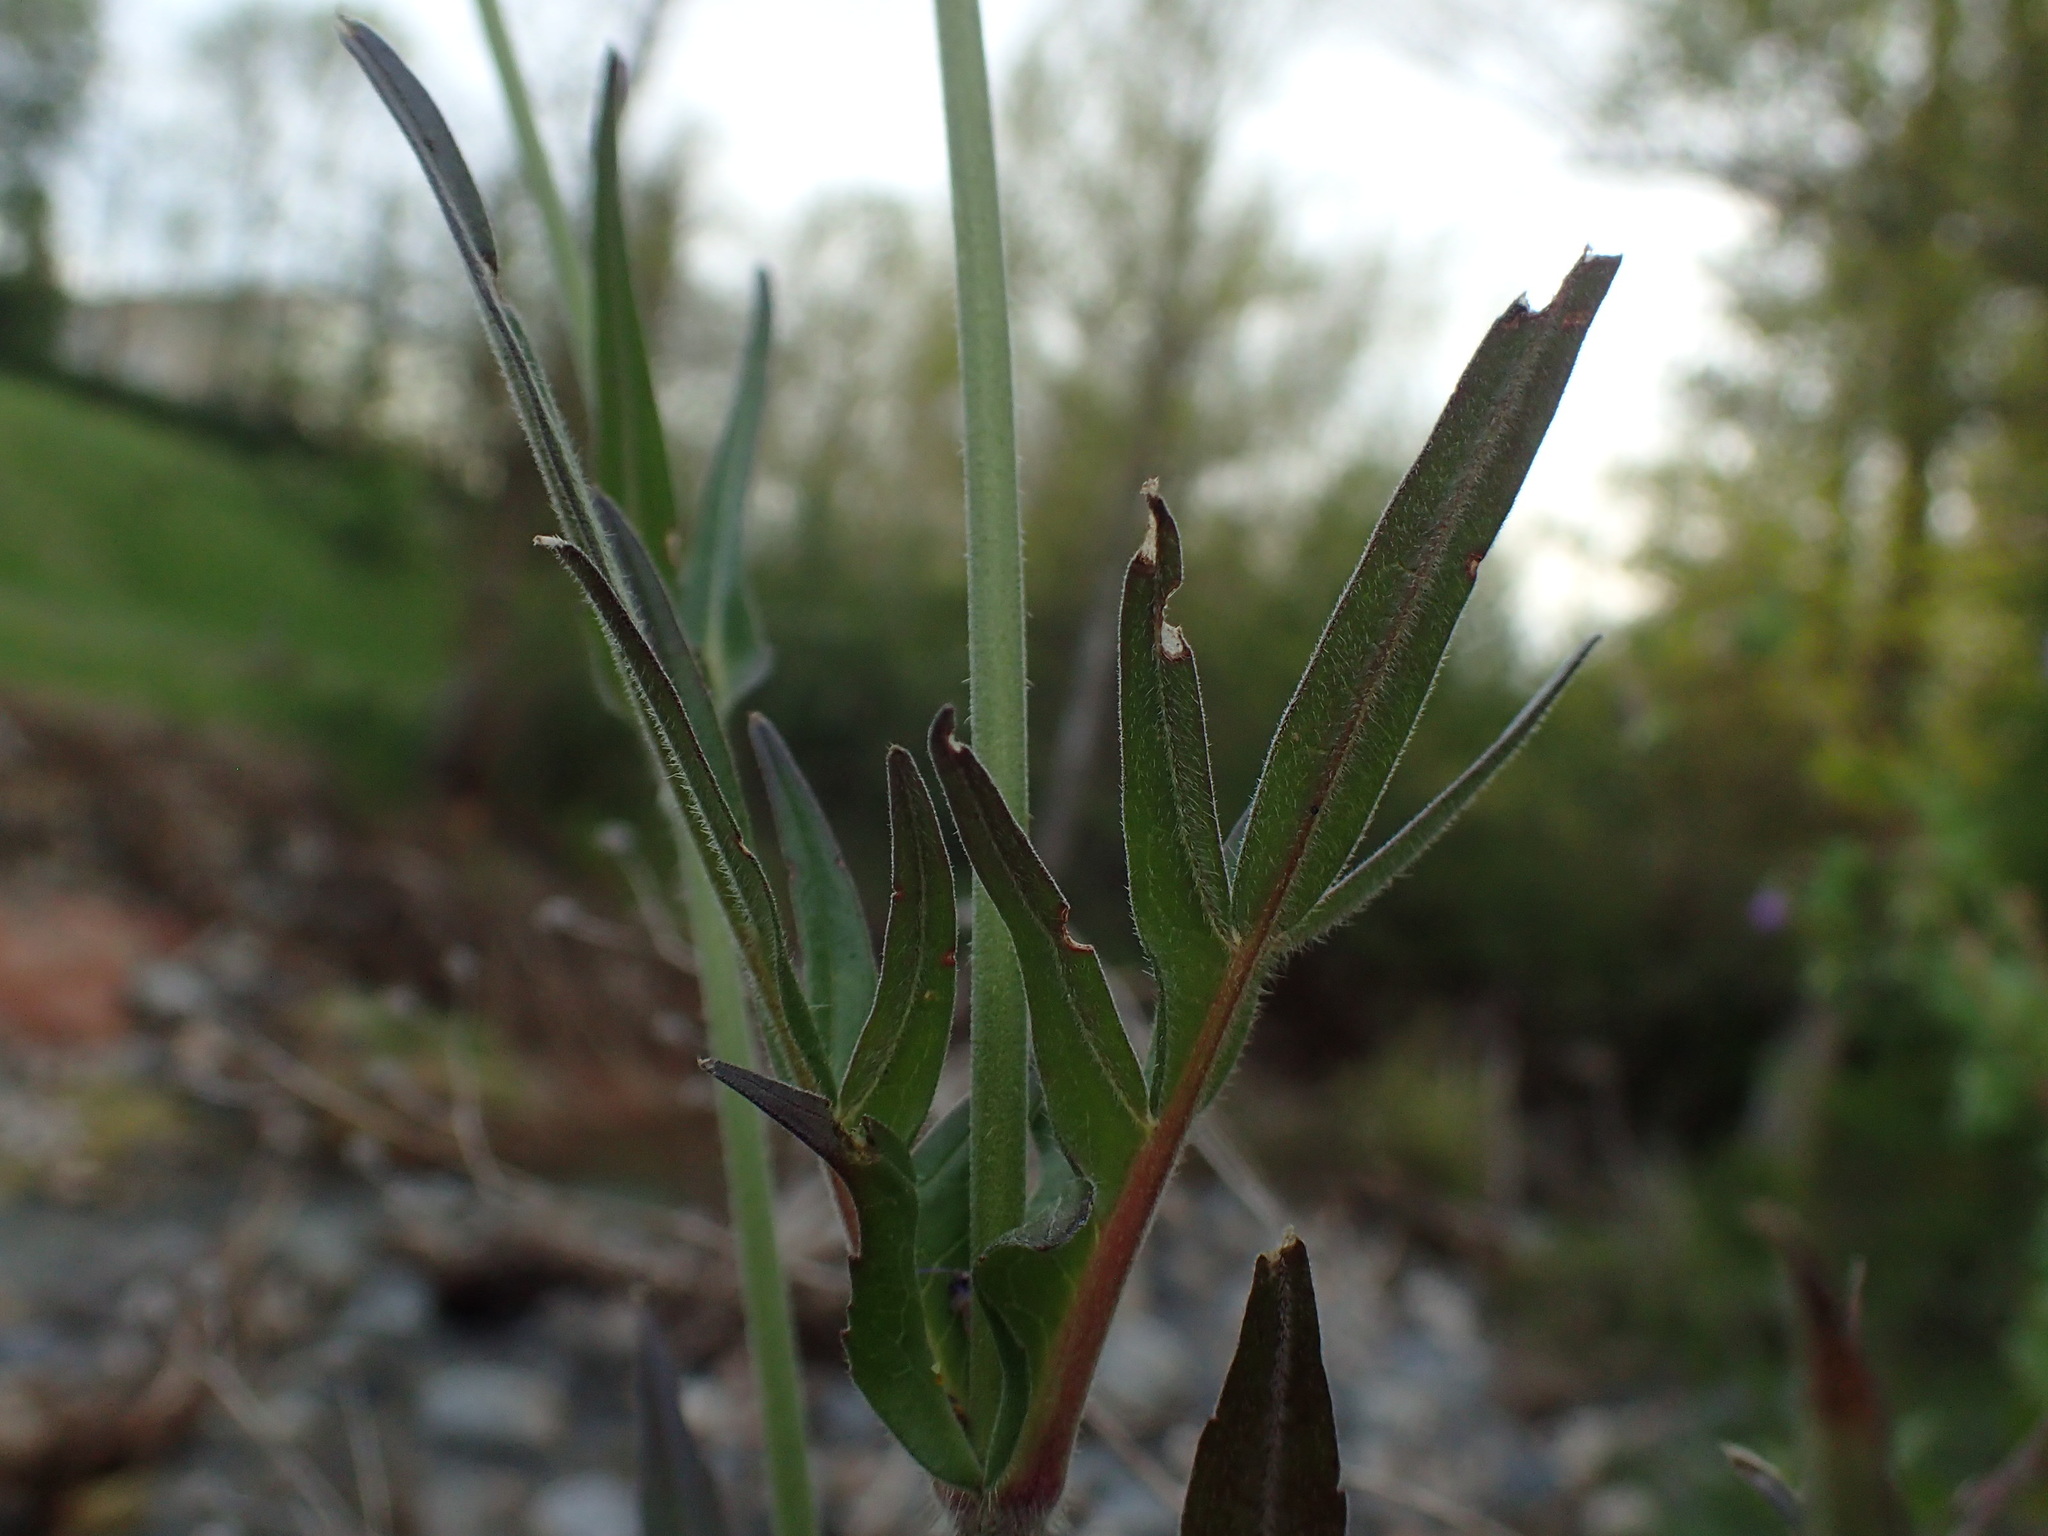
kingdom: Plantae
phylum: Tracheophyta
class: Magnoliopsida
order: Dipsacales
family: Caprifoliaceae
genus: Knautia
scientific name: Knautia arvensis
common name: Field scabiosa
